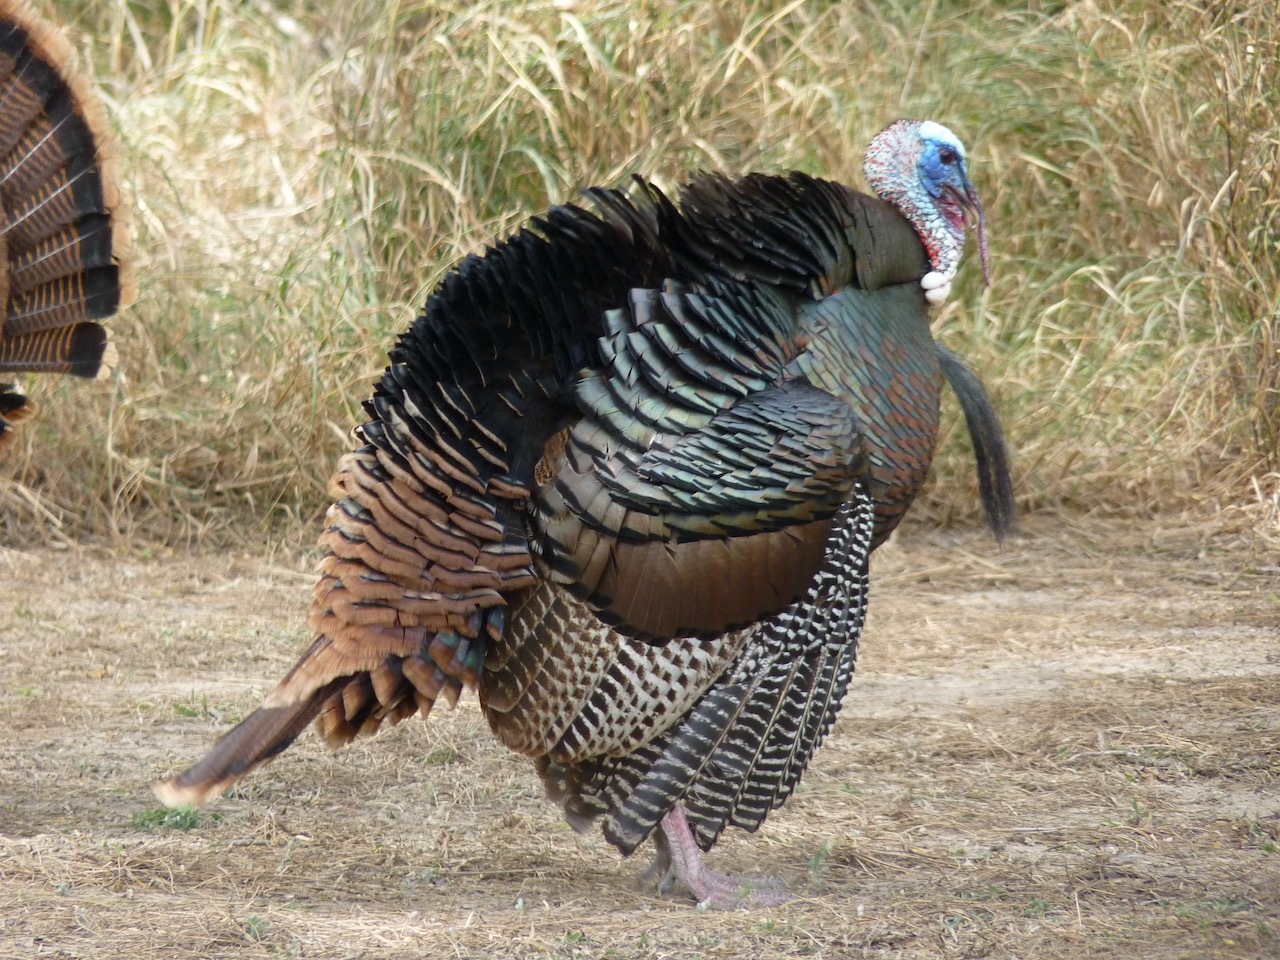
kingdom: Animalia
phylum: Chordata
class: Aves
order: Galliformes
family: Phasianidae
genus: Meleagris
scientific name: Meleagris gallopavo
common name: Wild turkey
